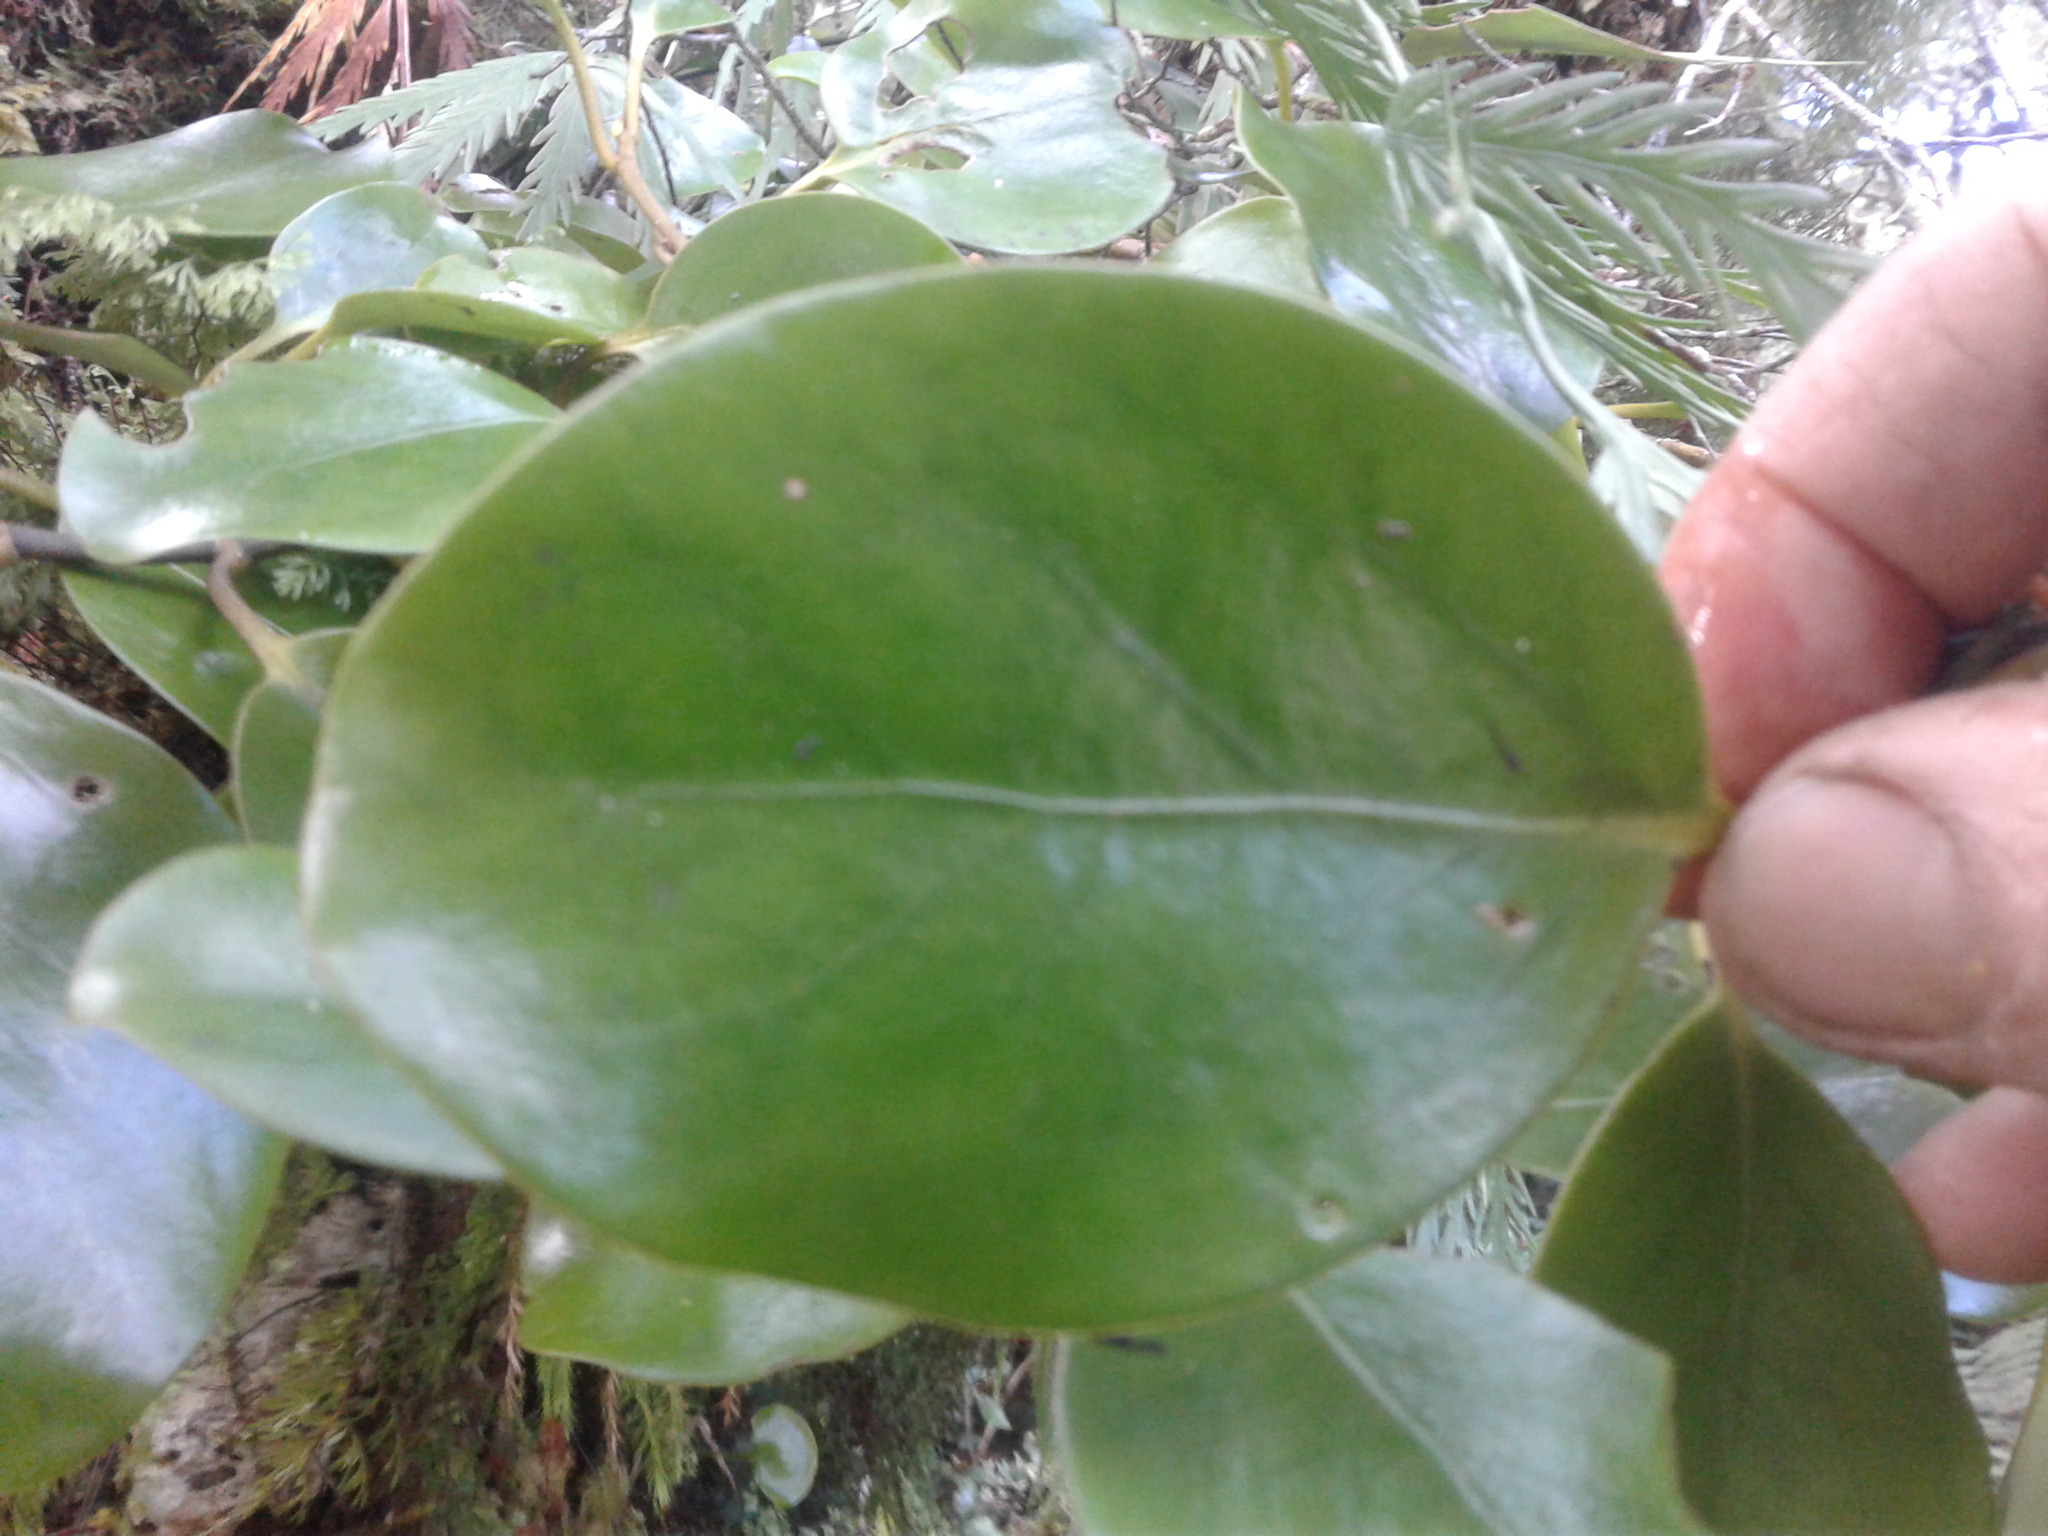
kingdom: Plantae
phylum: Tracheophyta
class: Magnoliopsida
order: Apiales
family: Griseliniaceae
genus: Griselinia
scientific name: Griselinia lucida
